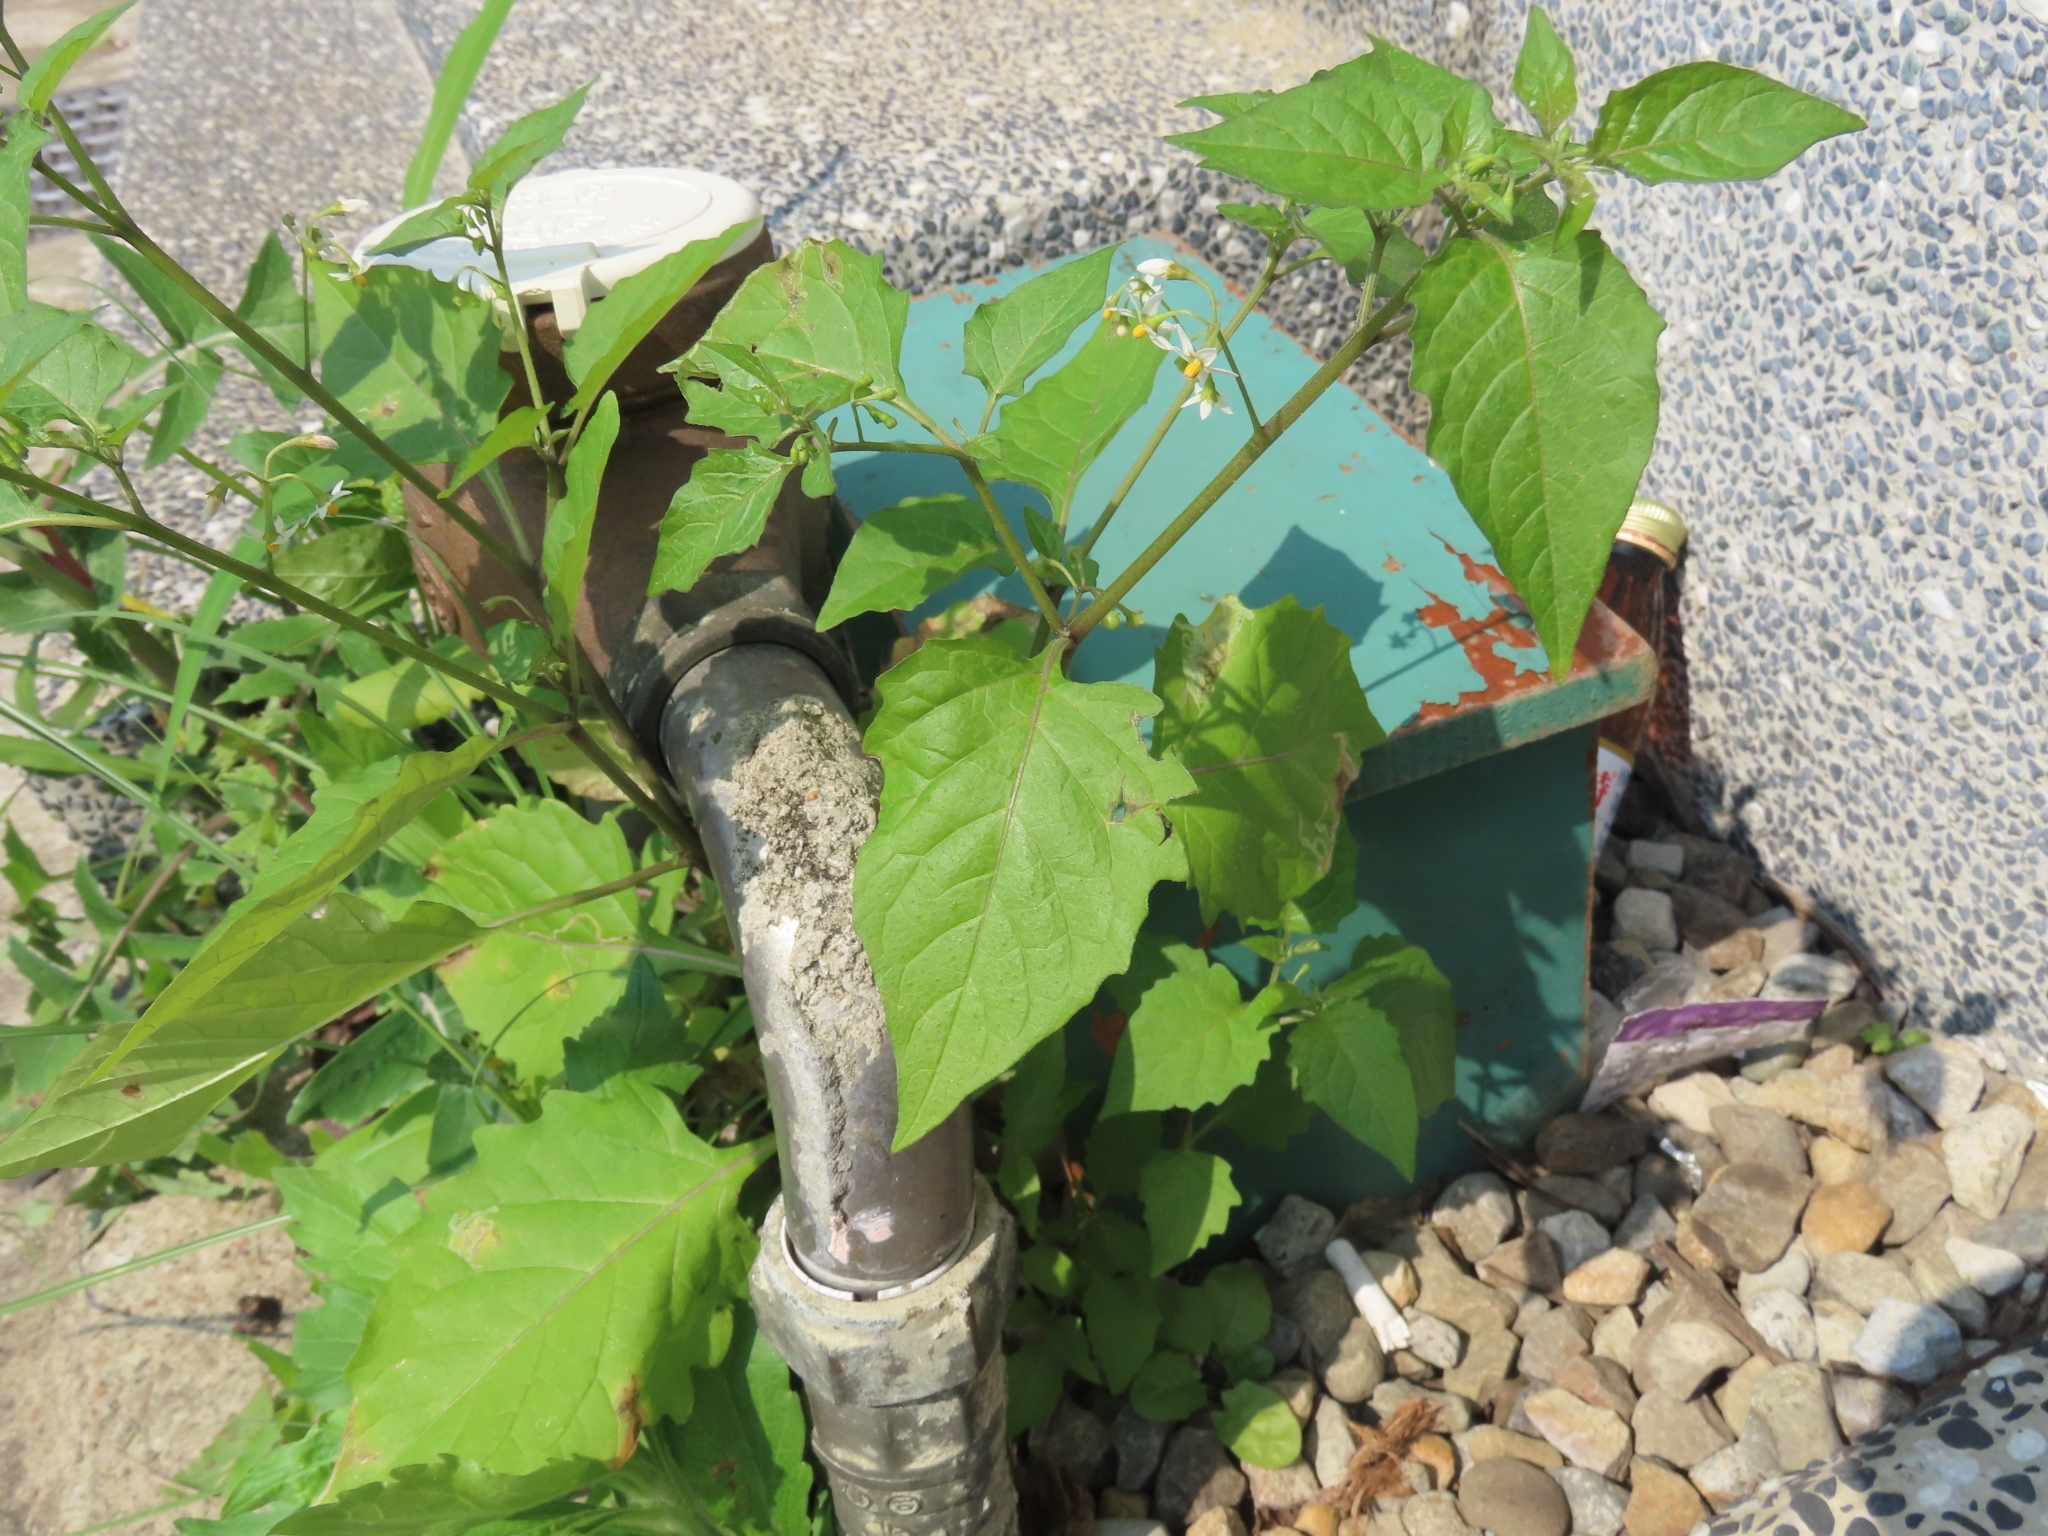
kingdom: Plantae
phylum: Tracheophyta
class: Magnoliopsida
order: Solanales
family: Solanaceae
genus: Solanum
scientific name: Solanum americanum
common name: American black nightshade
